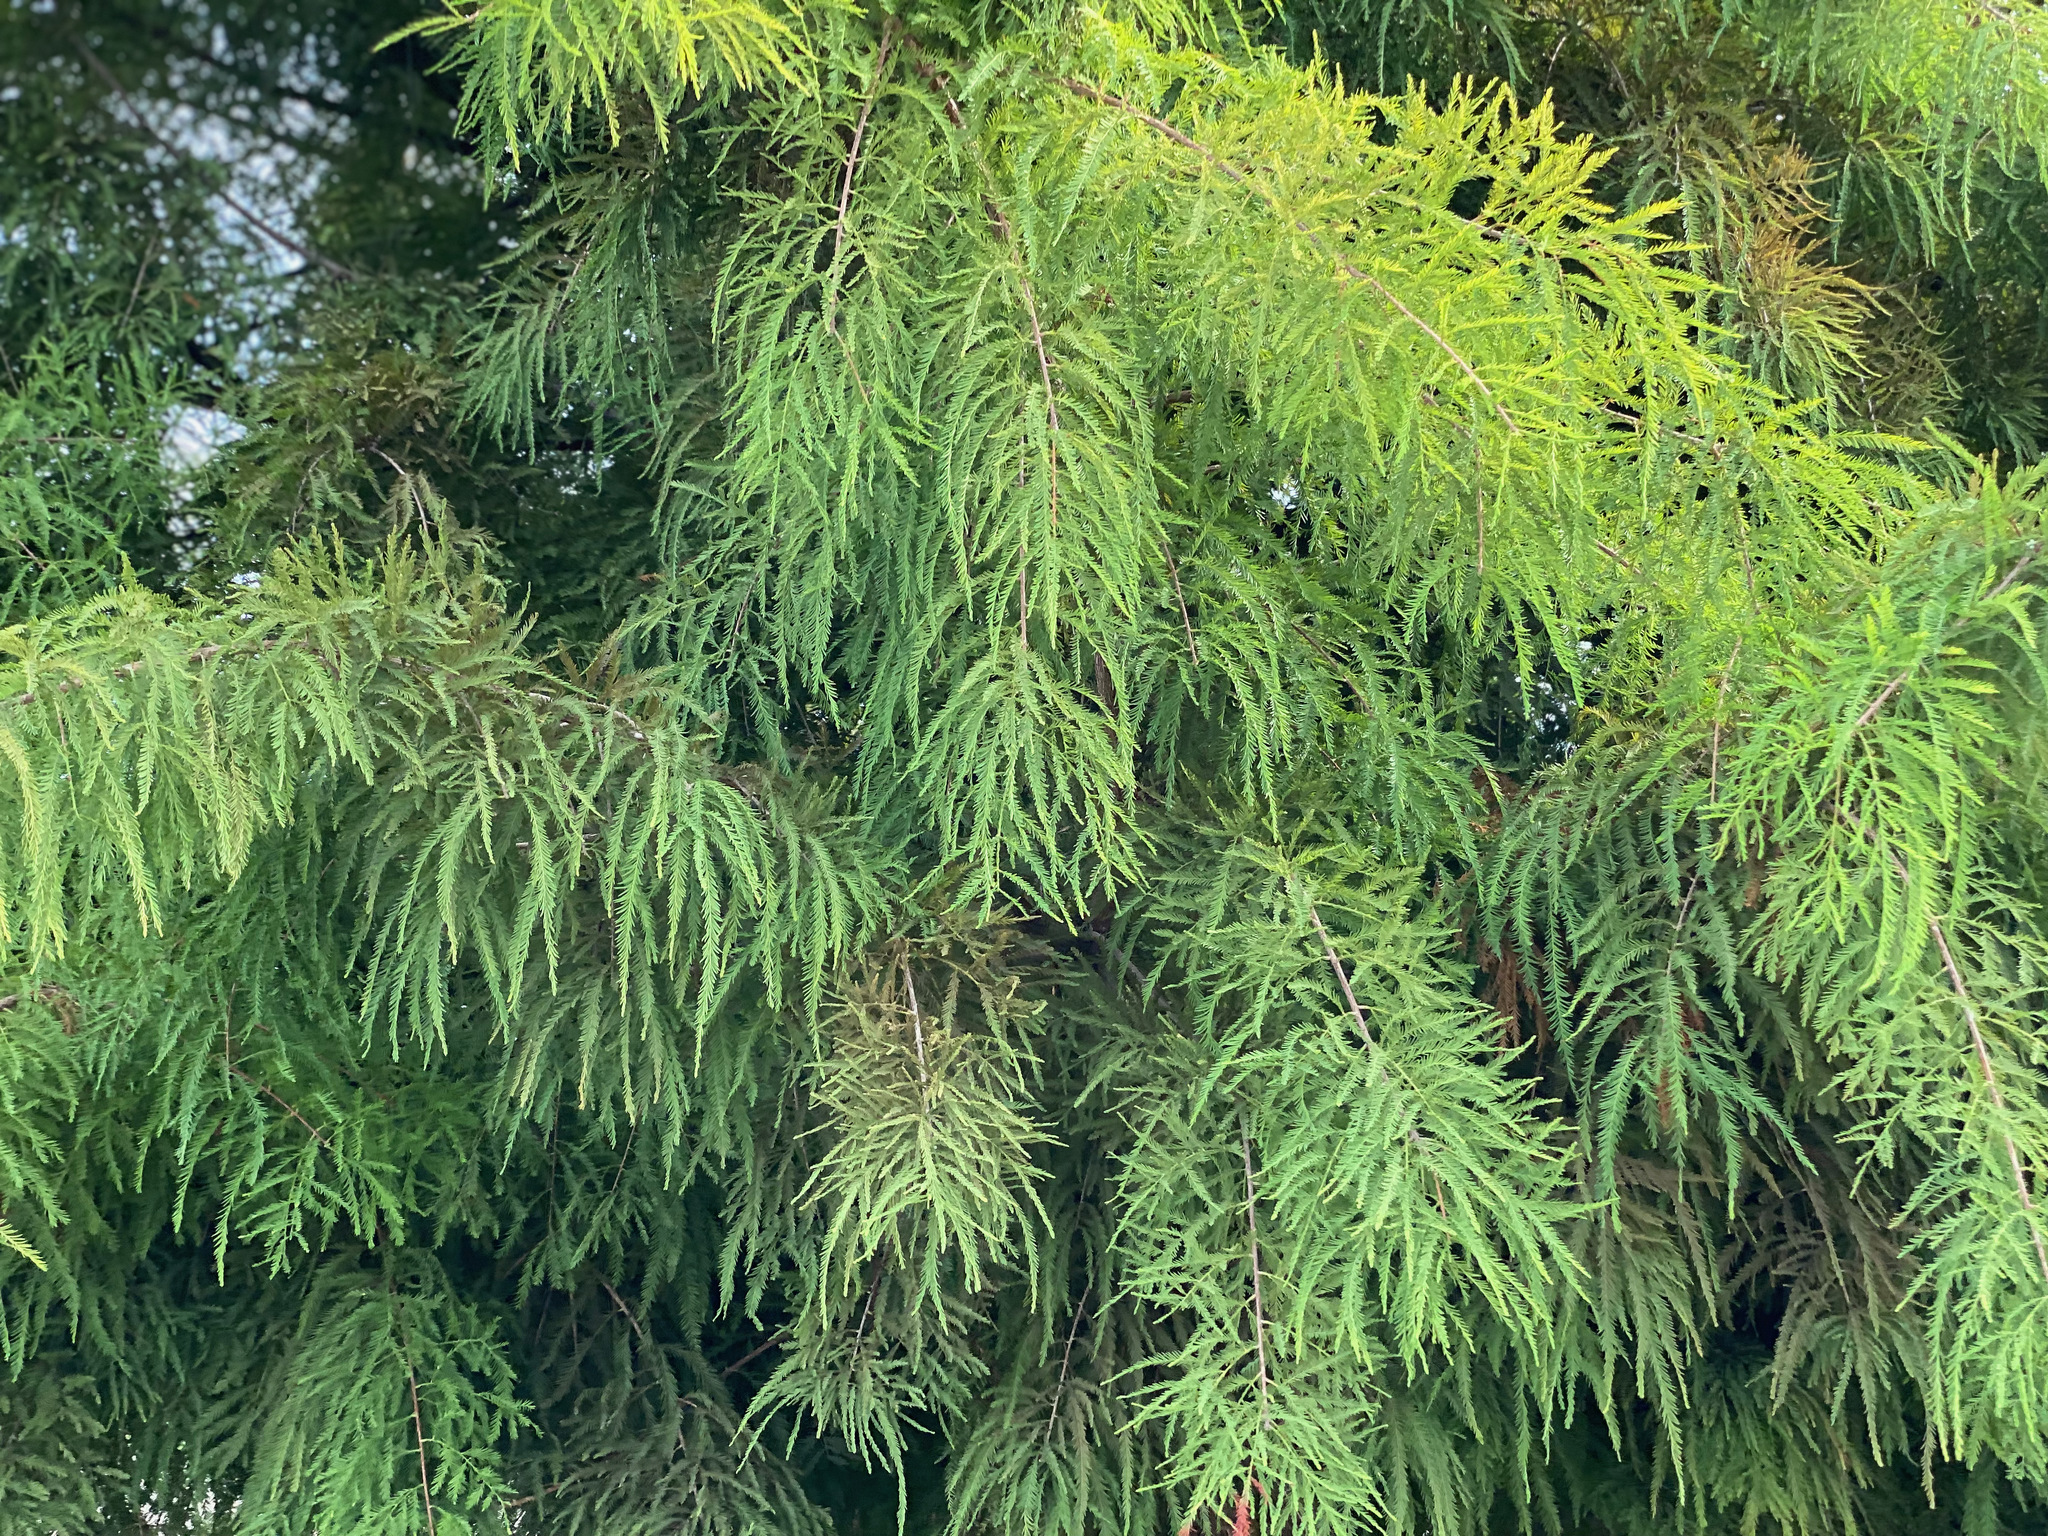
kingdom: Plantae
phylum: Tracheophyta
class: Pinopsida
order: Pinales
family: Cupressaceae
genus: Taxodium
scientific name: Taxodium distichum
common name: Bald cypress
